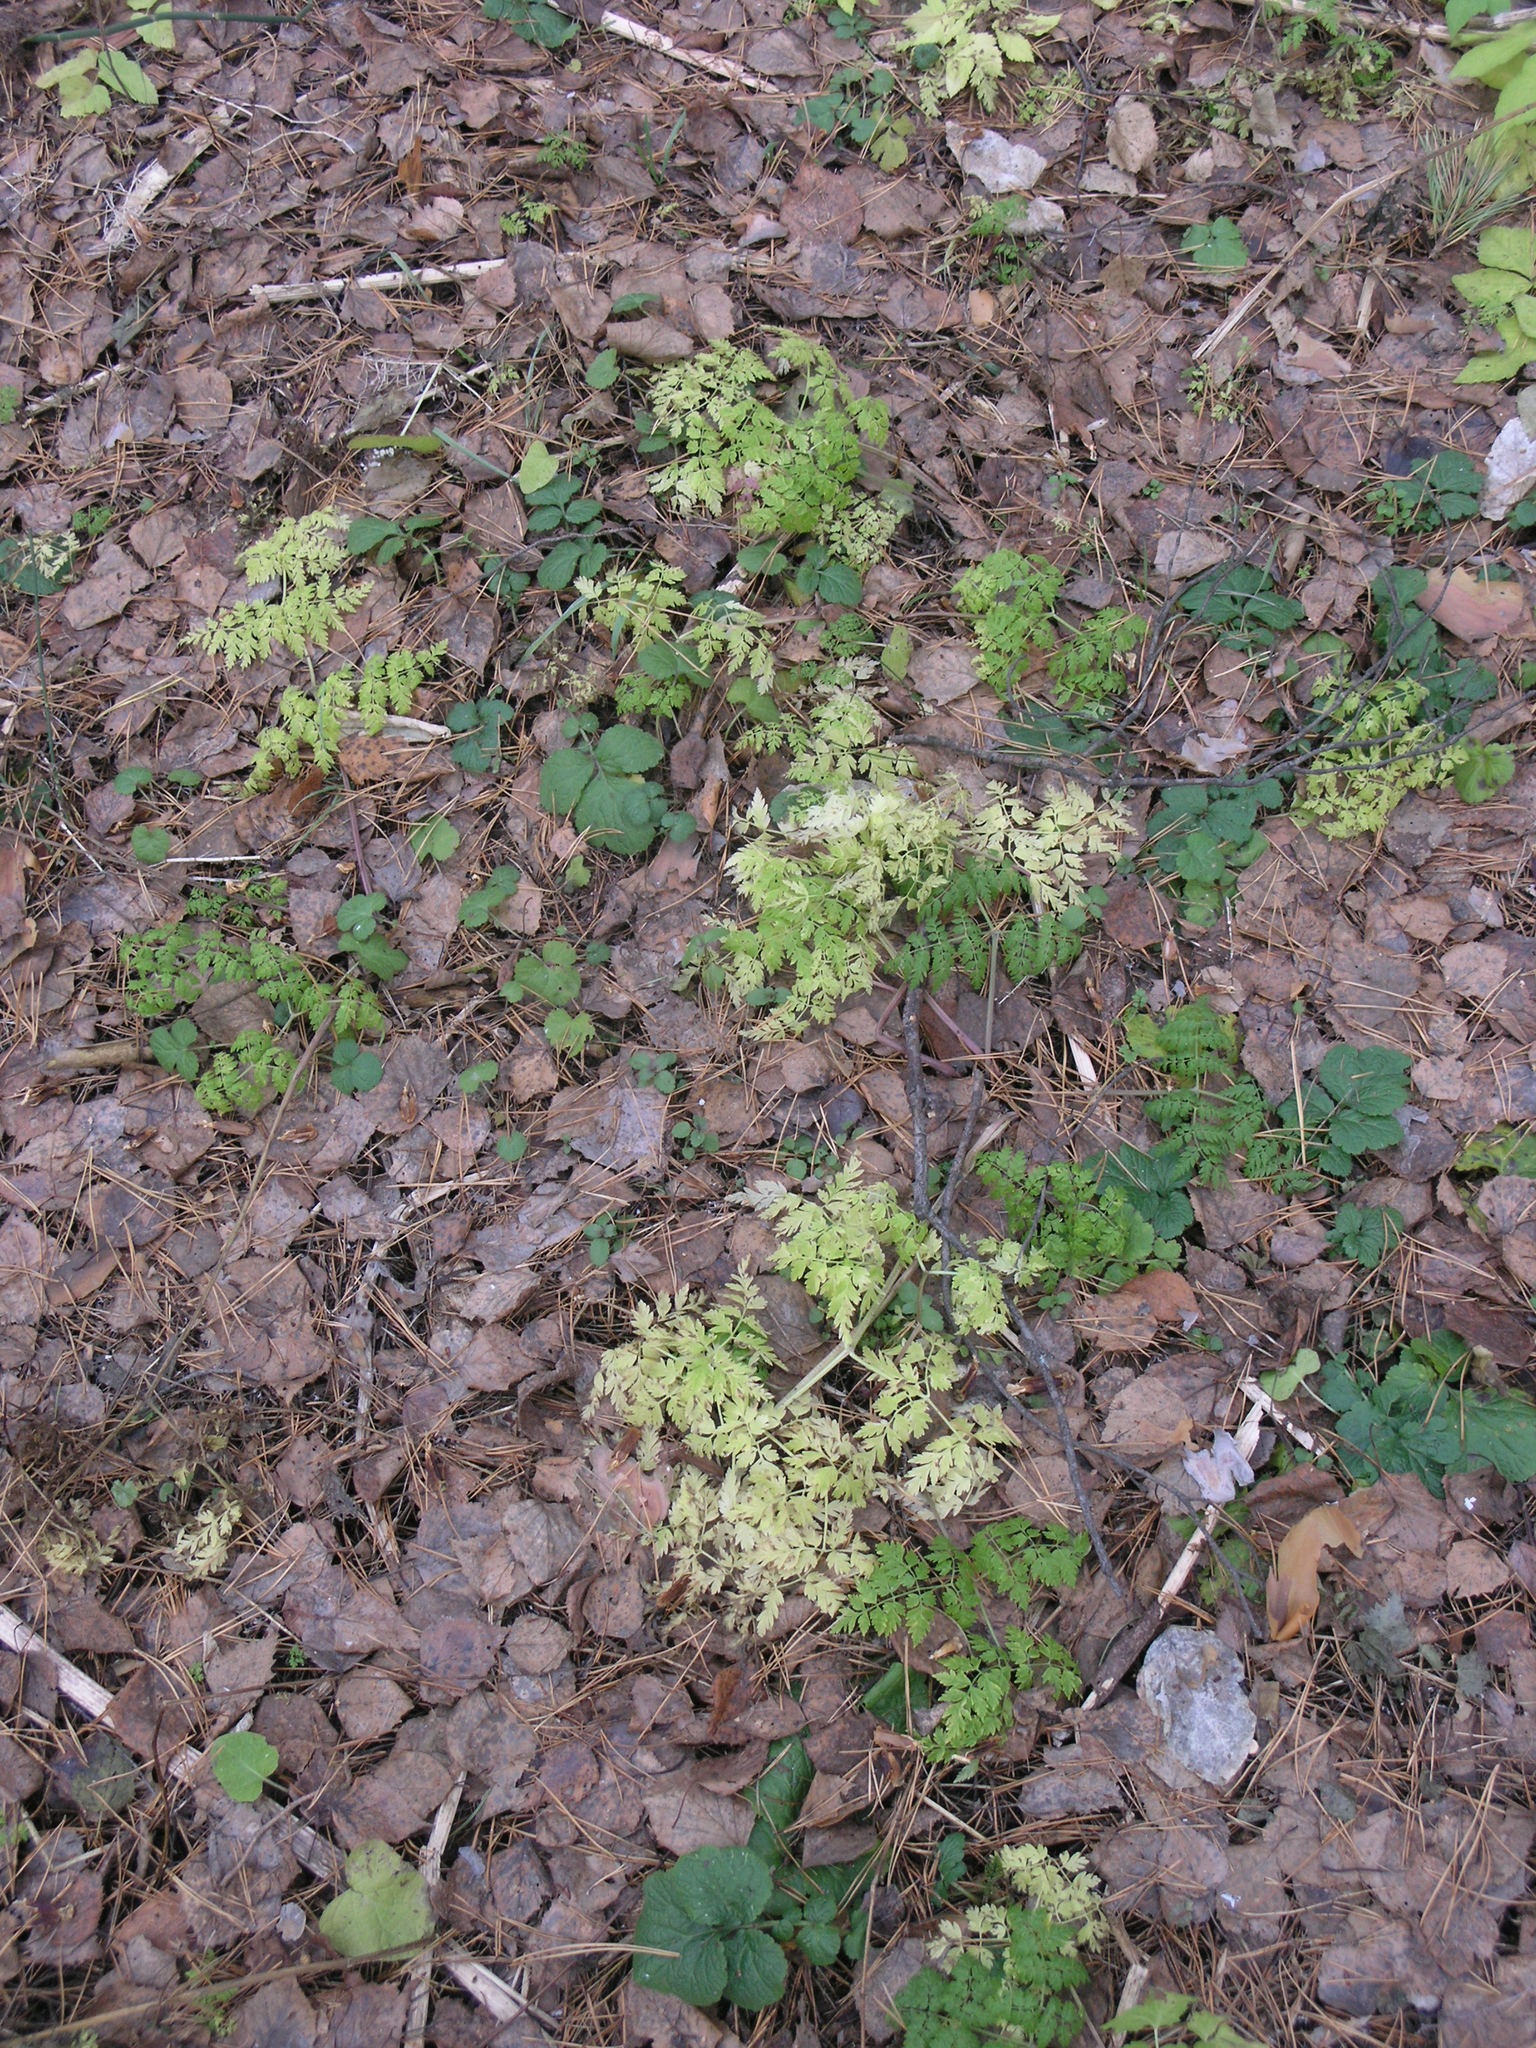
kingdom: Plantae
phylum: Tracheophyta
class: Magnoliopsida
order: Apiales
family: Apiaceae
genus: Anthriscus
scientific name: Anthriscus sylvestris
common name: Cow parsley
